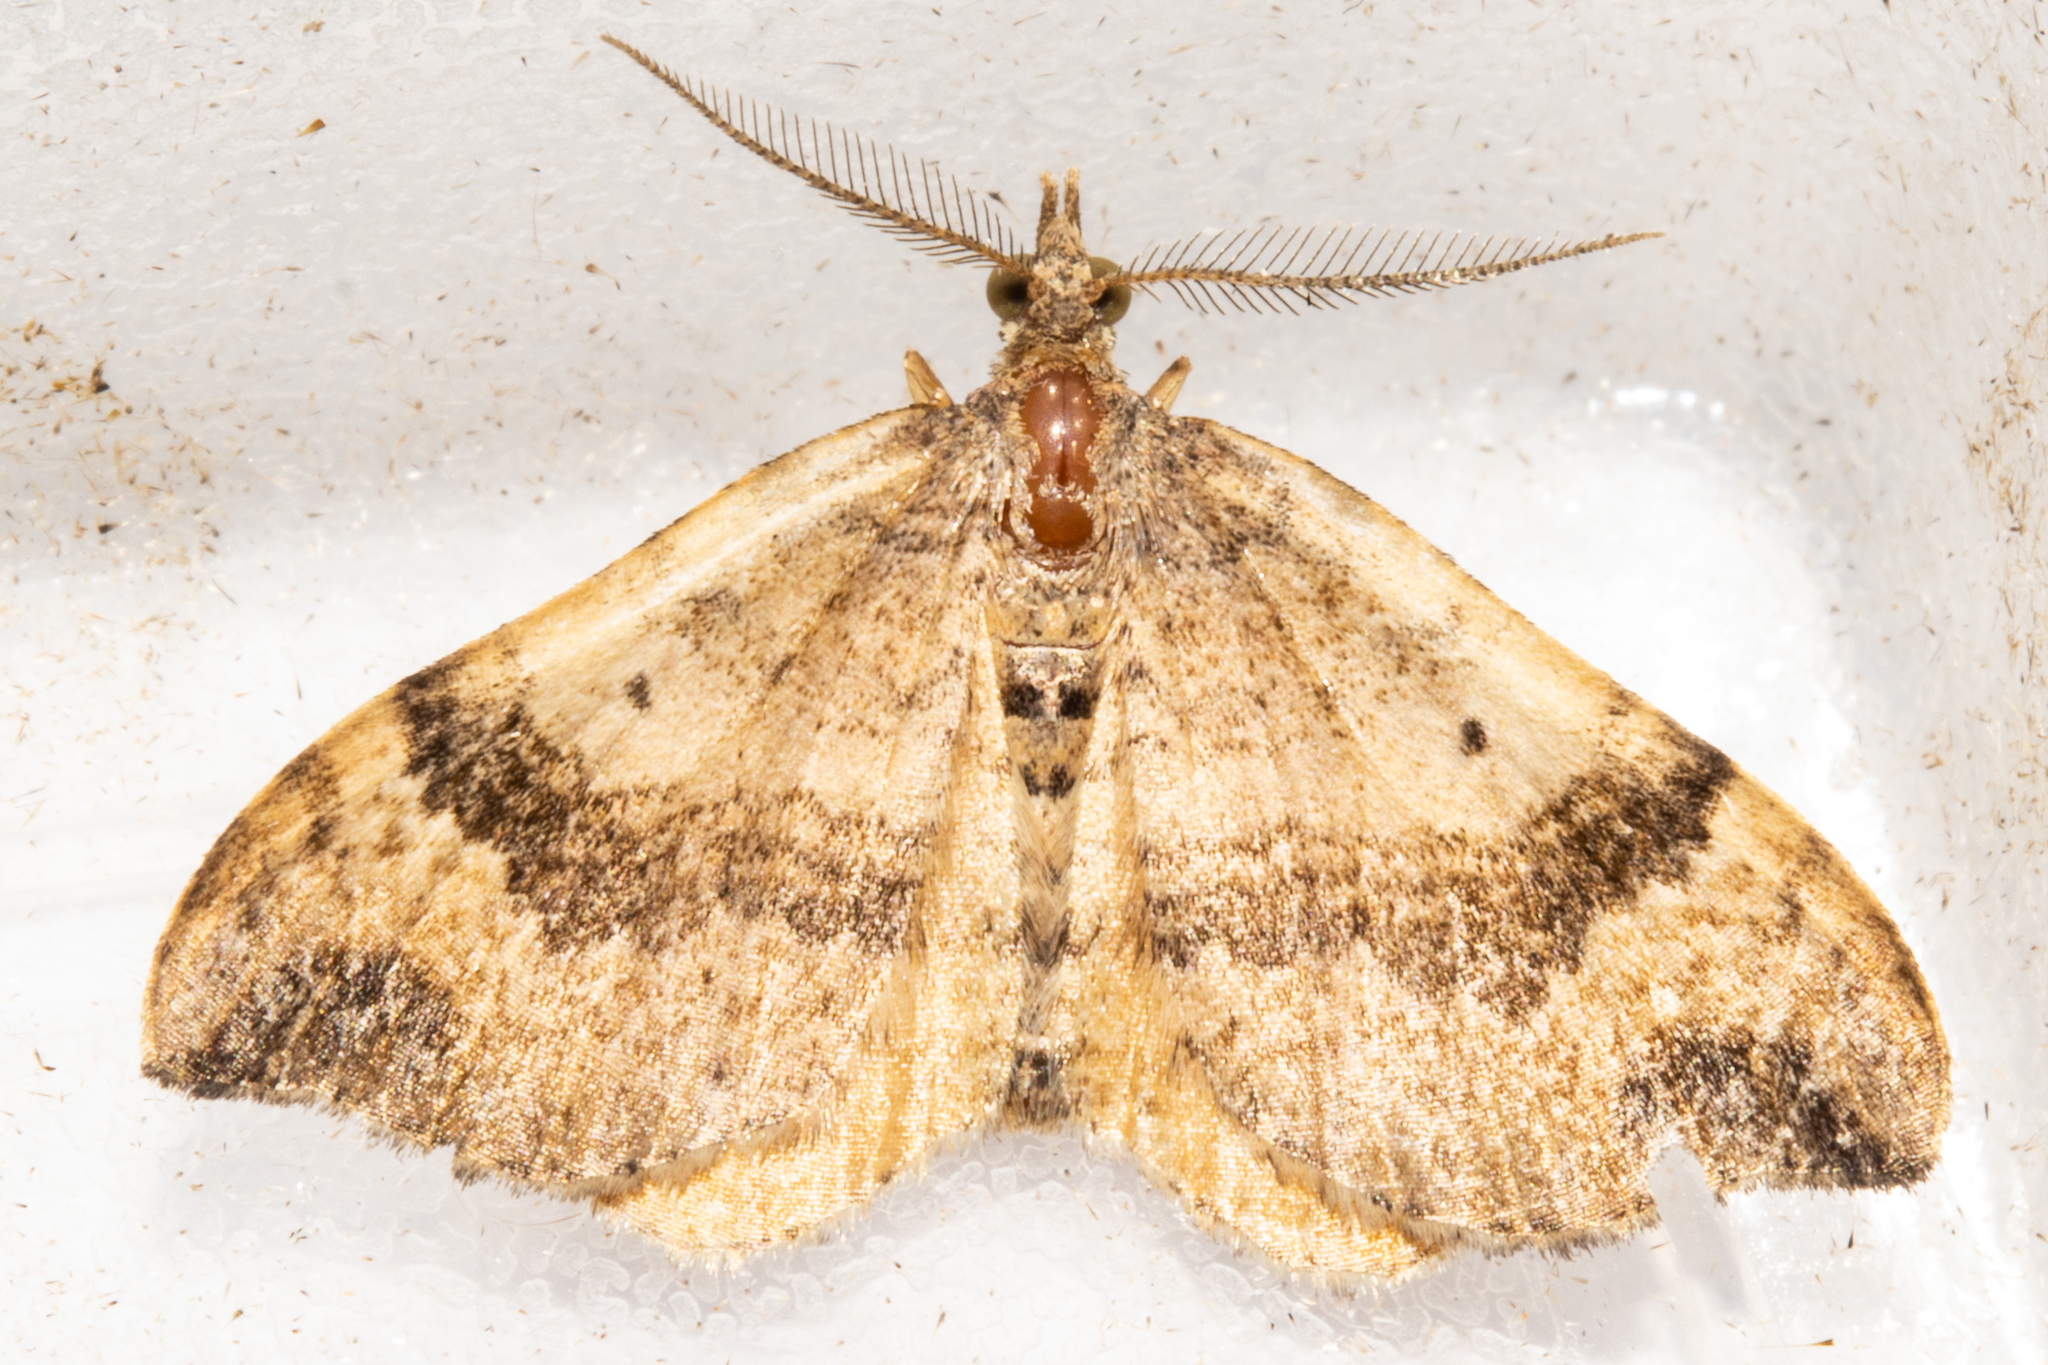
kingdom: Animalia
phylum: Arthropoda
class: Insecta
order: Lepidoptera
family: Geometridae
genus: Homodotis
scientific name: Homodotis megaspilata
